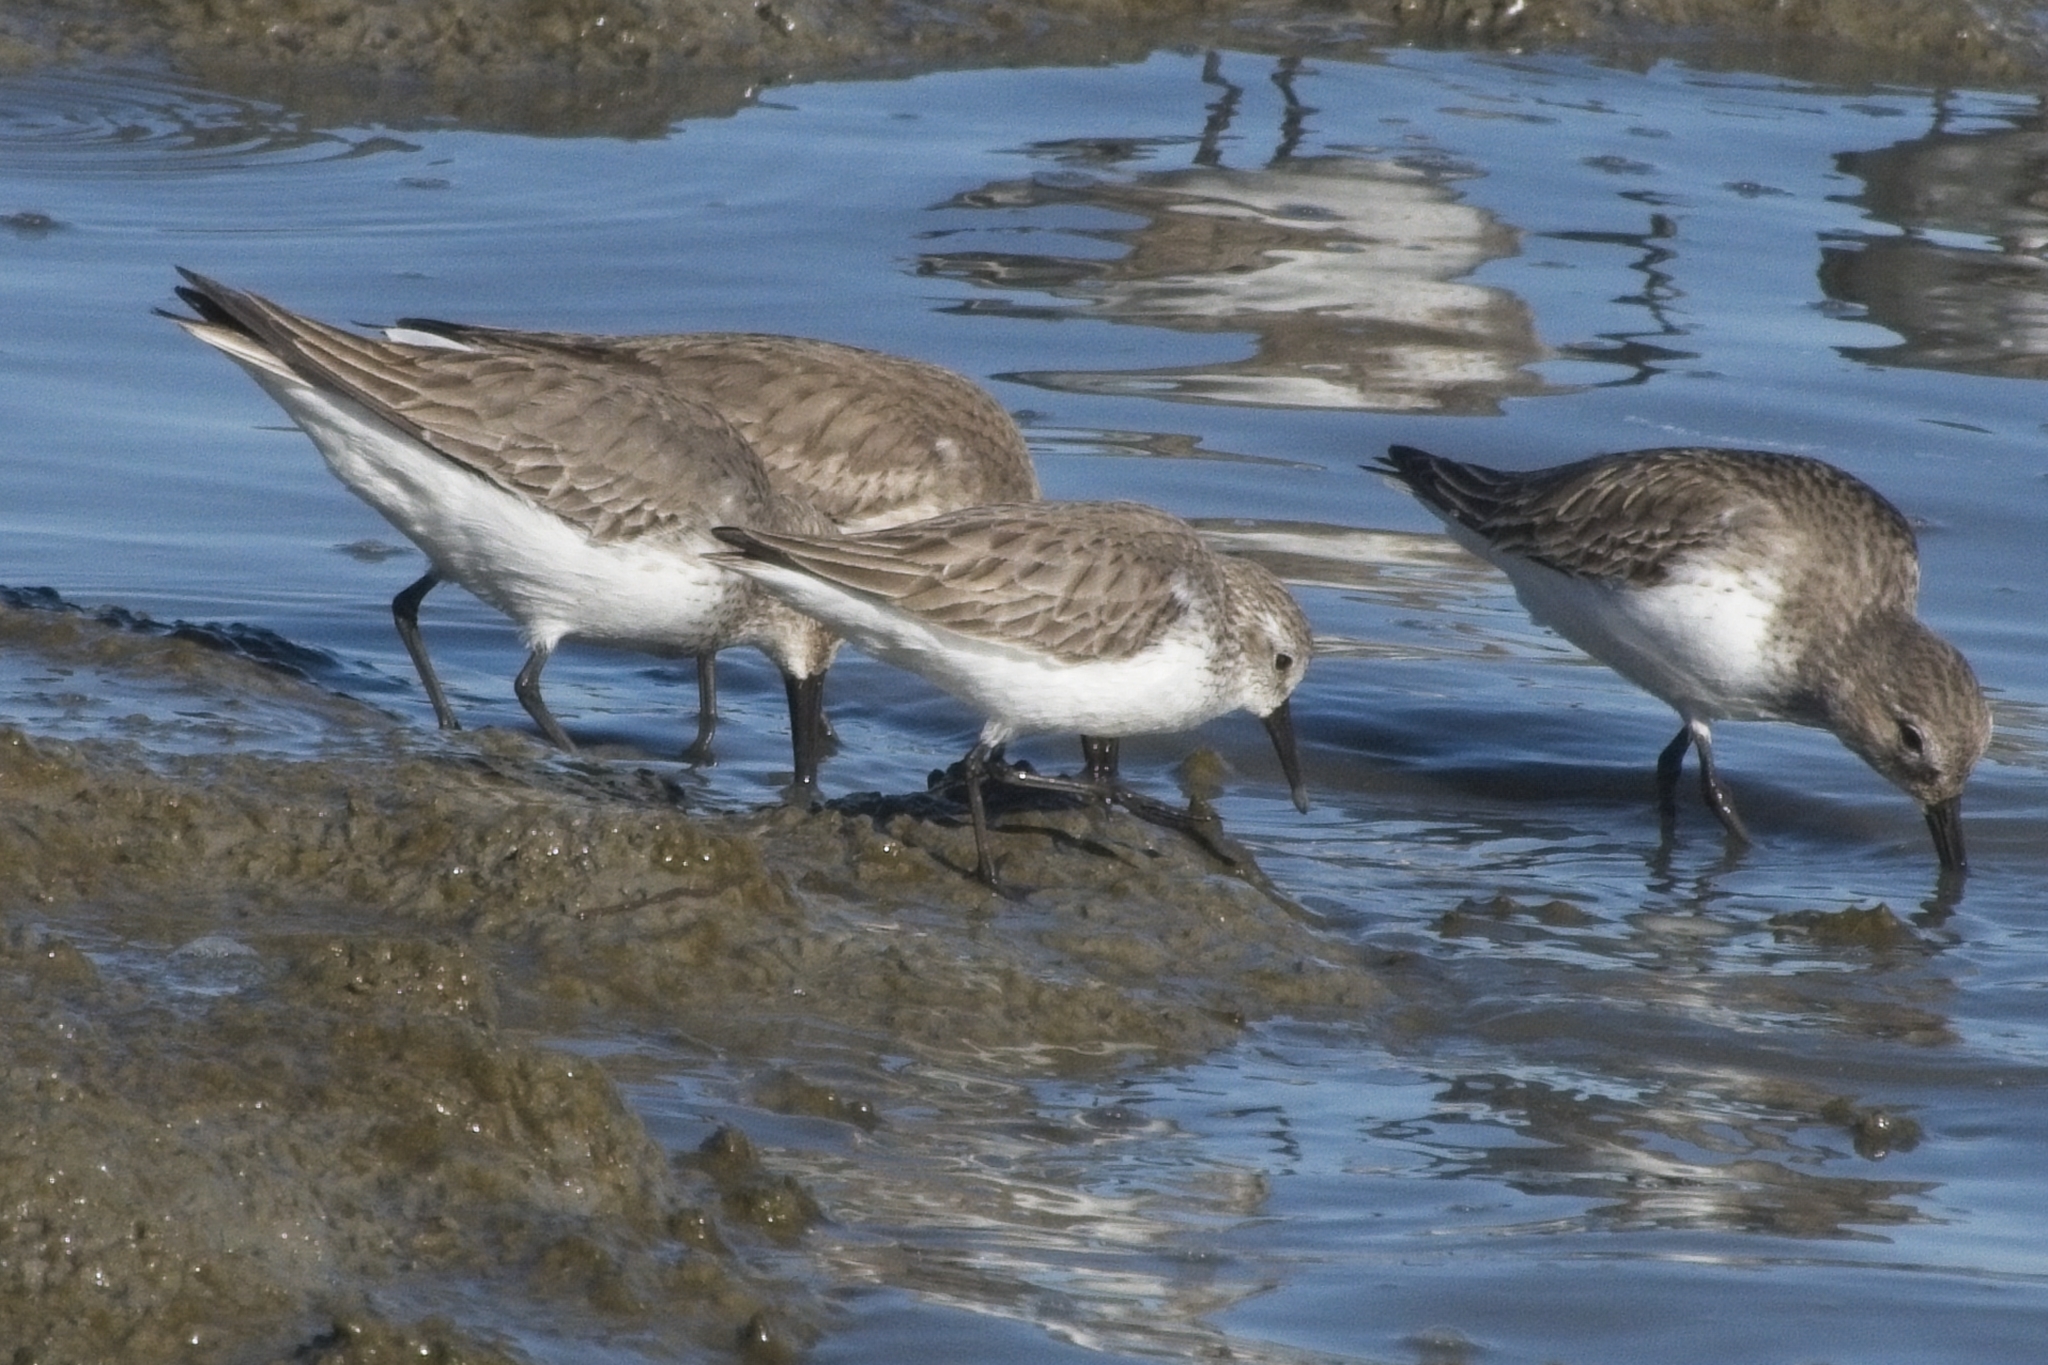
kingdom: Animalia
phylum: Chordata
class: Aves
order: Charadriiformes
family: Scolopacidae
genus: Calidris
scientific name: Calidris mauri
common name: Western sandpiper
